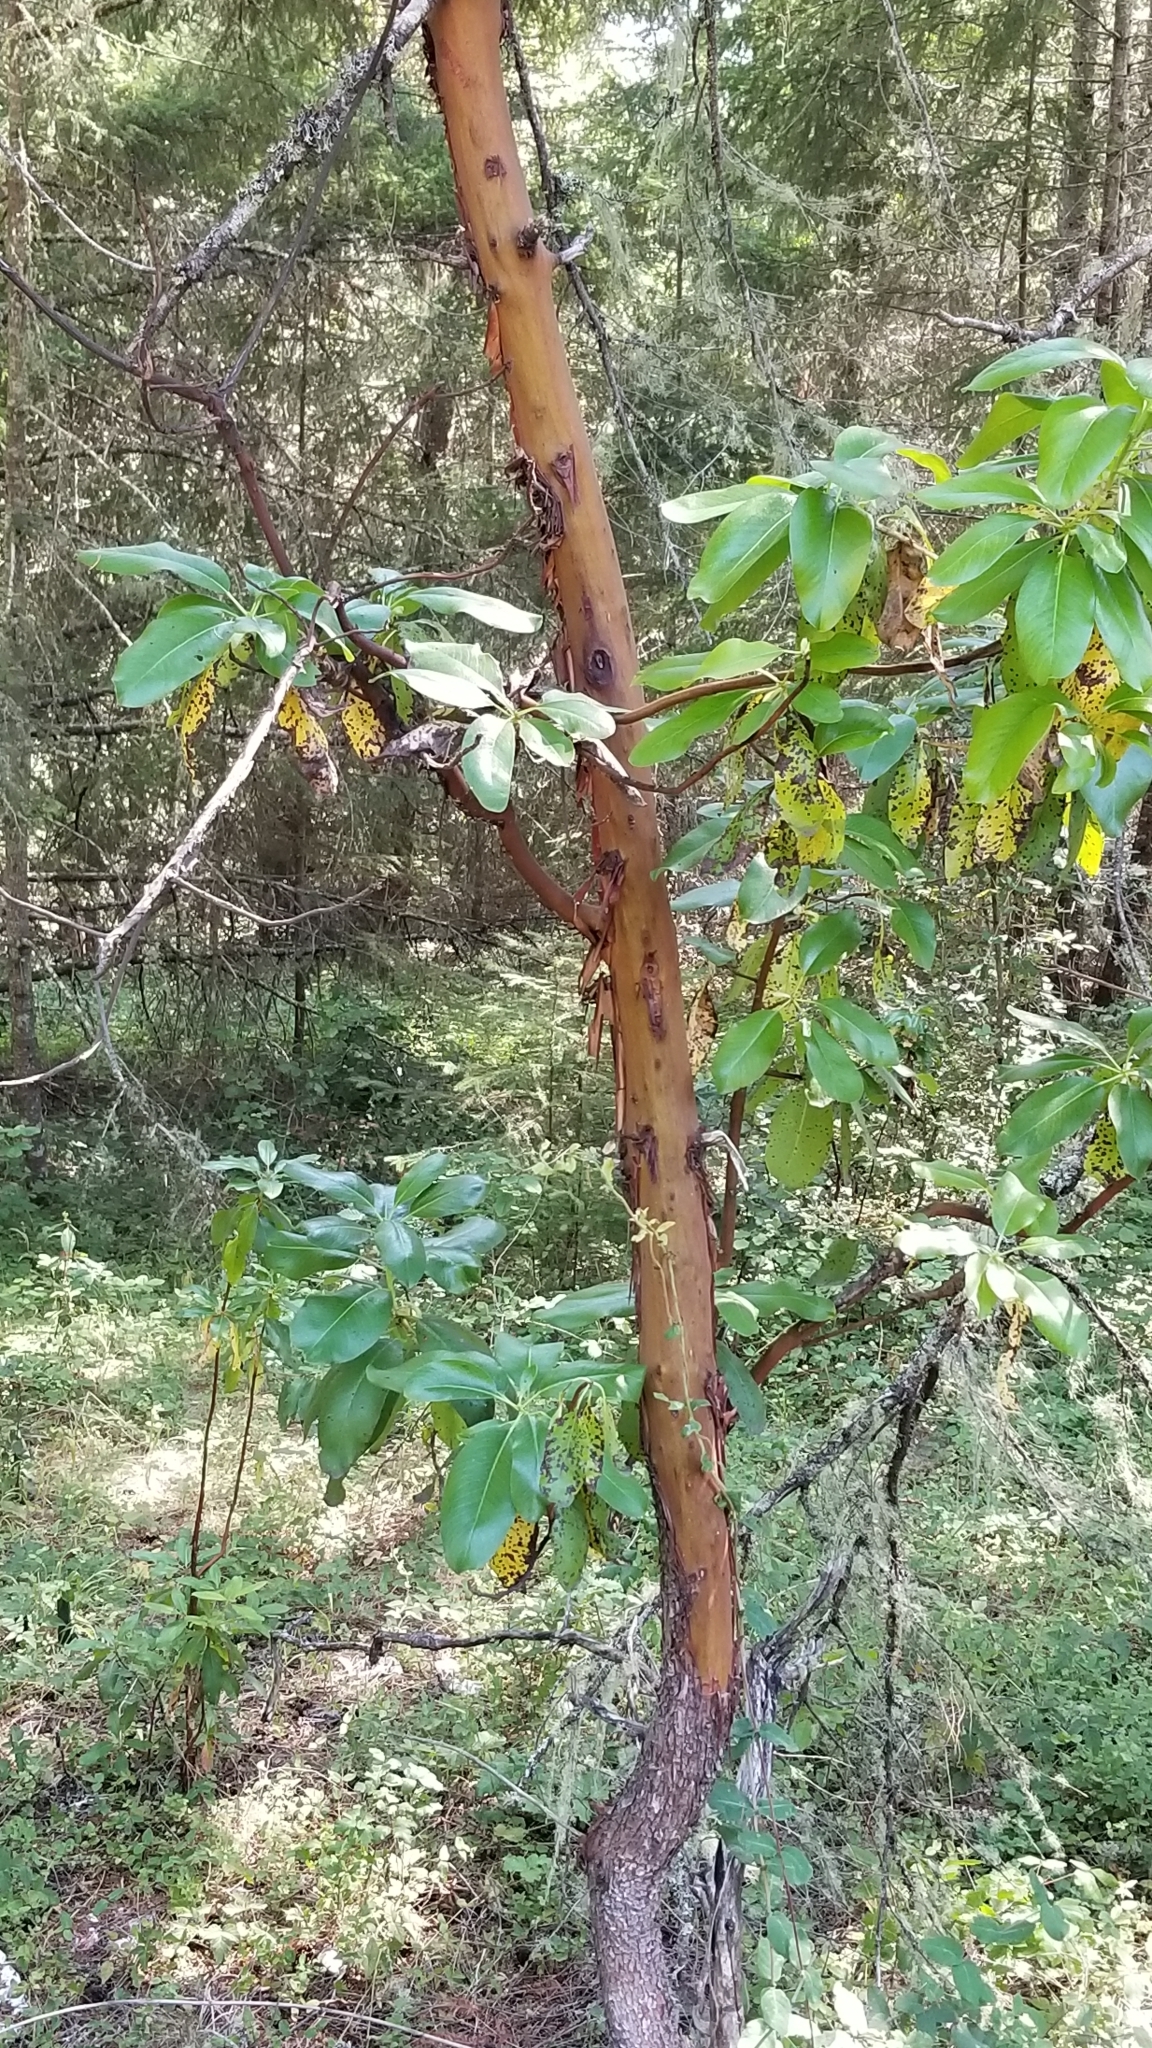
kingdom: Plantae
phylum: Tracheophyta
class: Magnoliopsida
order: Ericales
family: Ericaceae
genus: Arbutus
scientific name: Arbutus menziesii
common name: Pacific madrone
